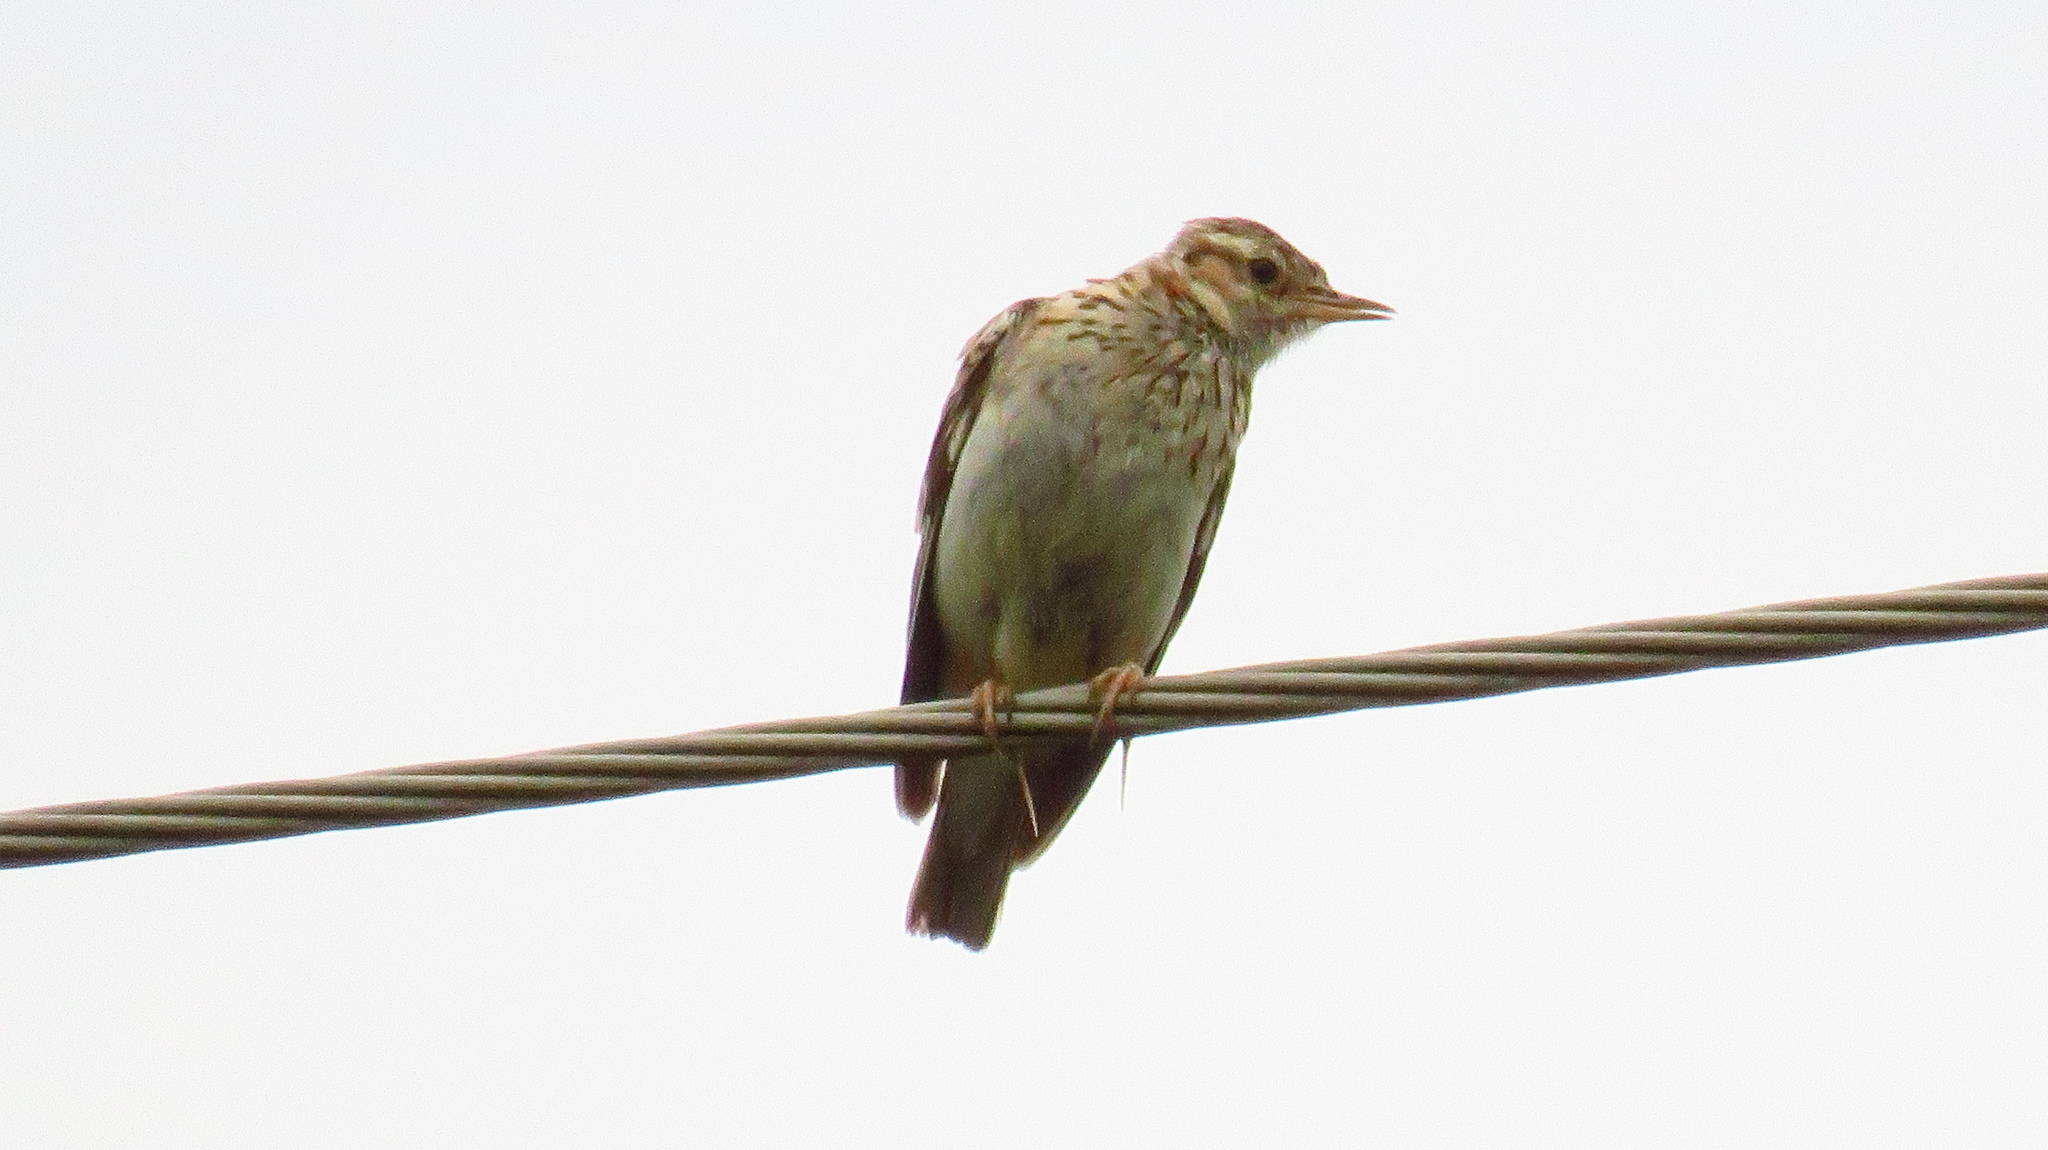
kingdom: Animalia
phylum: Chordata
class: Aves
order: Passeriformes
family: Alaudidae
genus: Lullula
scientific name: Lullula arborea
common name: Woodlark
